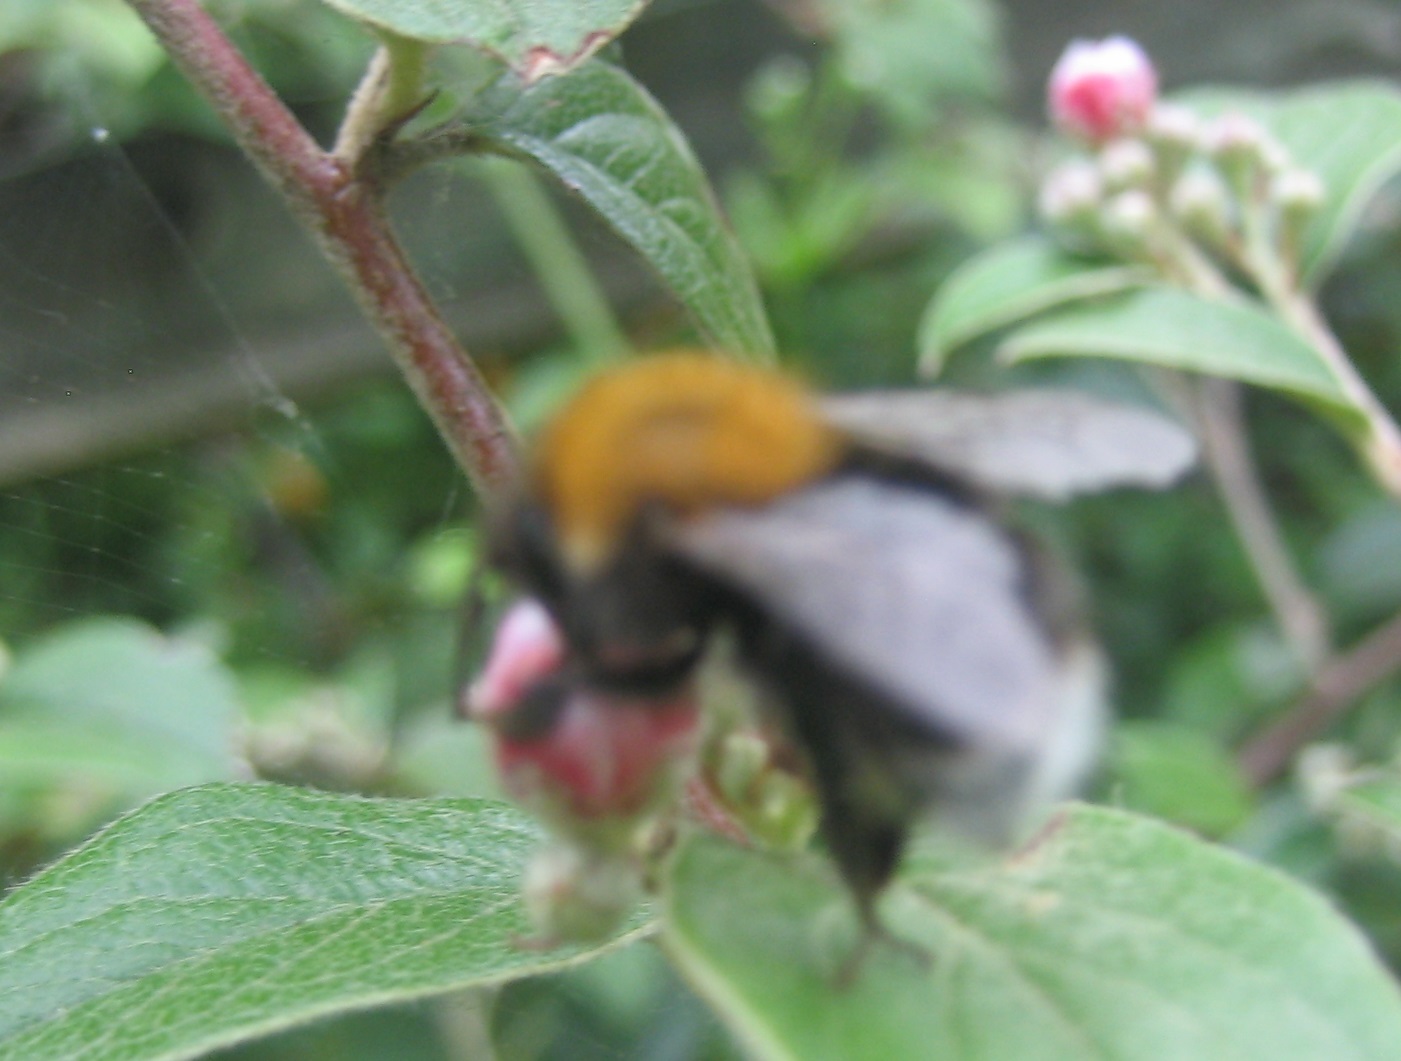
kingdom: Animalia
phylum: Arthropoda
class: Insecta
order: Hymenoptera
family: Apidae
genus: Bombus
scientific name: Bombus hypnorum
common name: New garden bumblebee
